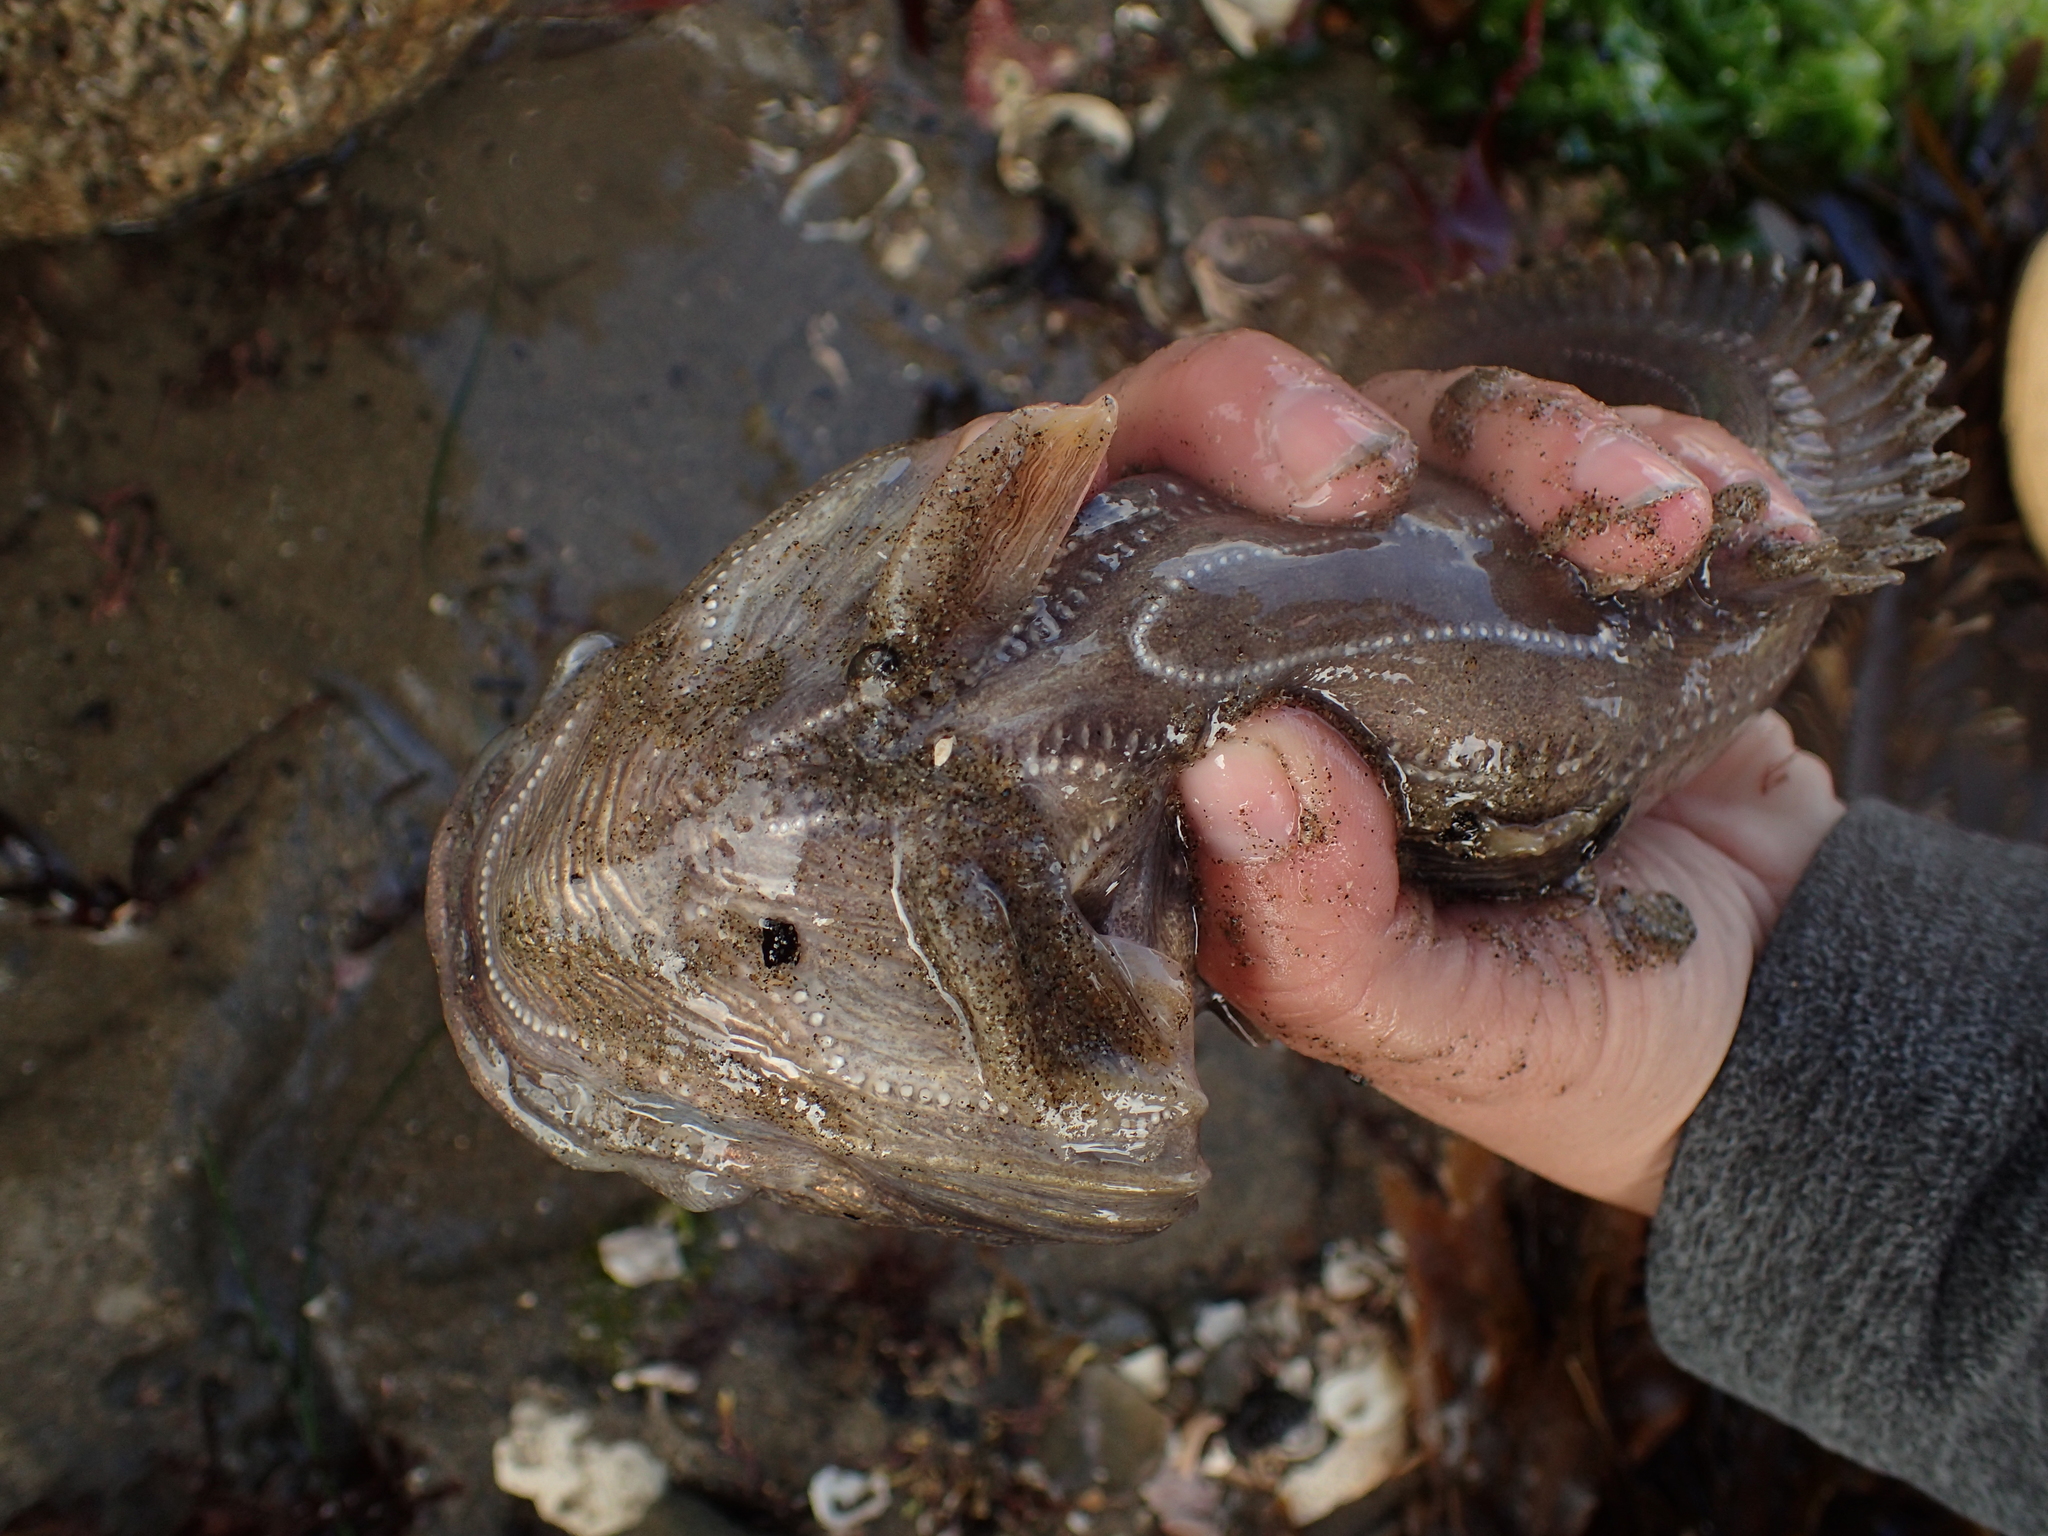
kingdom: Animalia
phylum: Chordata
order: Batrachoidiformes
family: Batrachoididae
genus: Porichthys
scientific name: Porichthys notatus
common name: Plainfin midshipman
